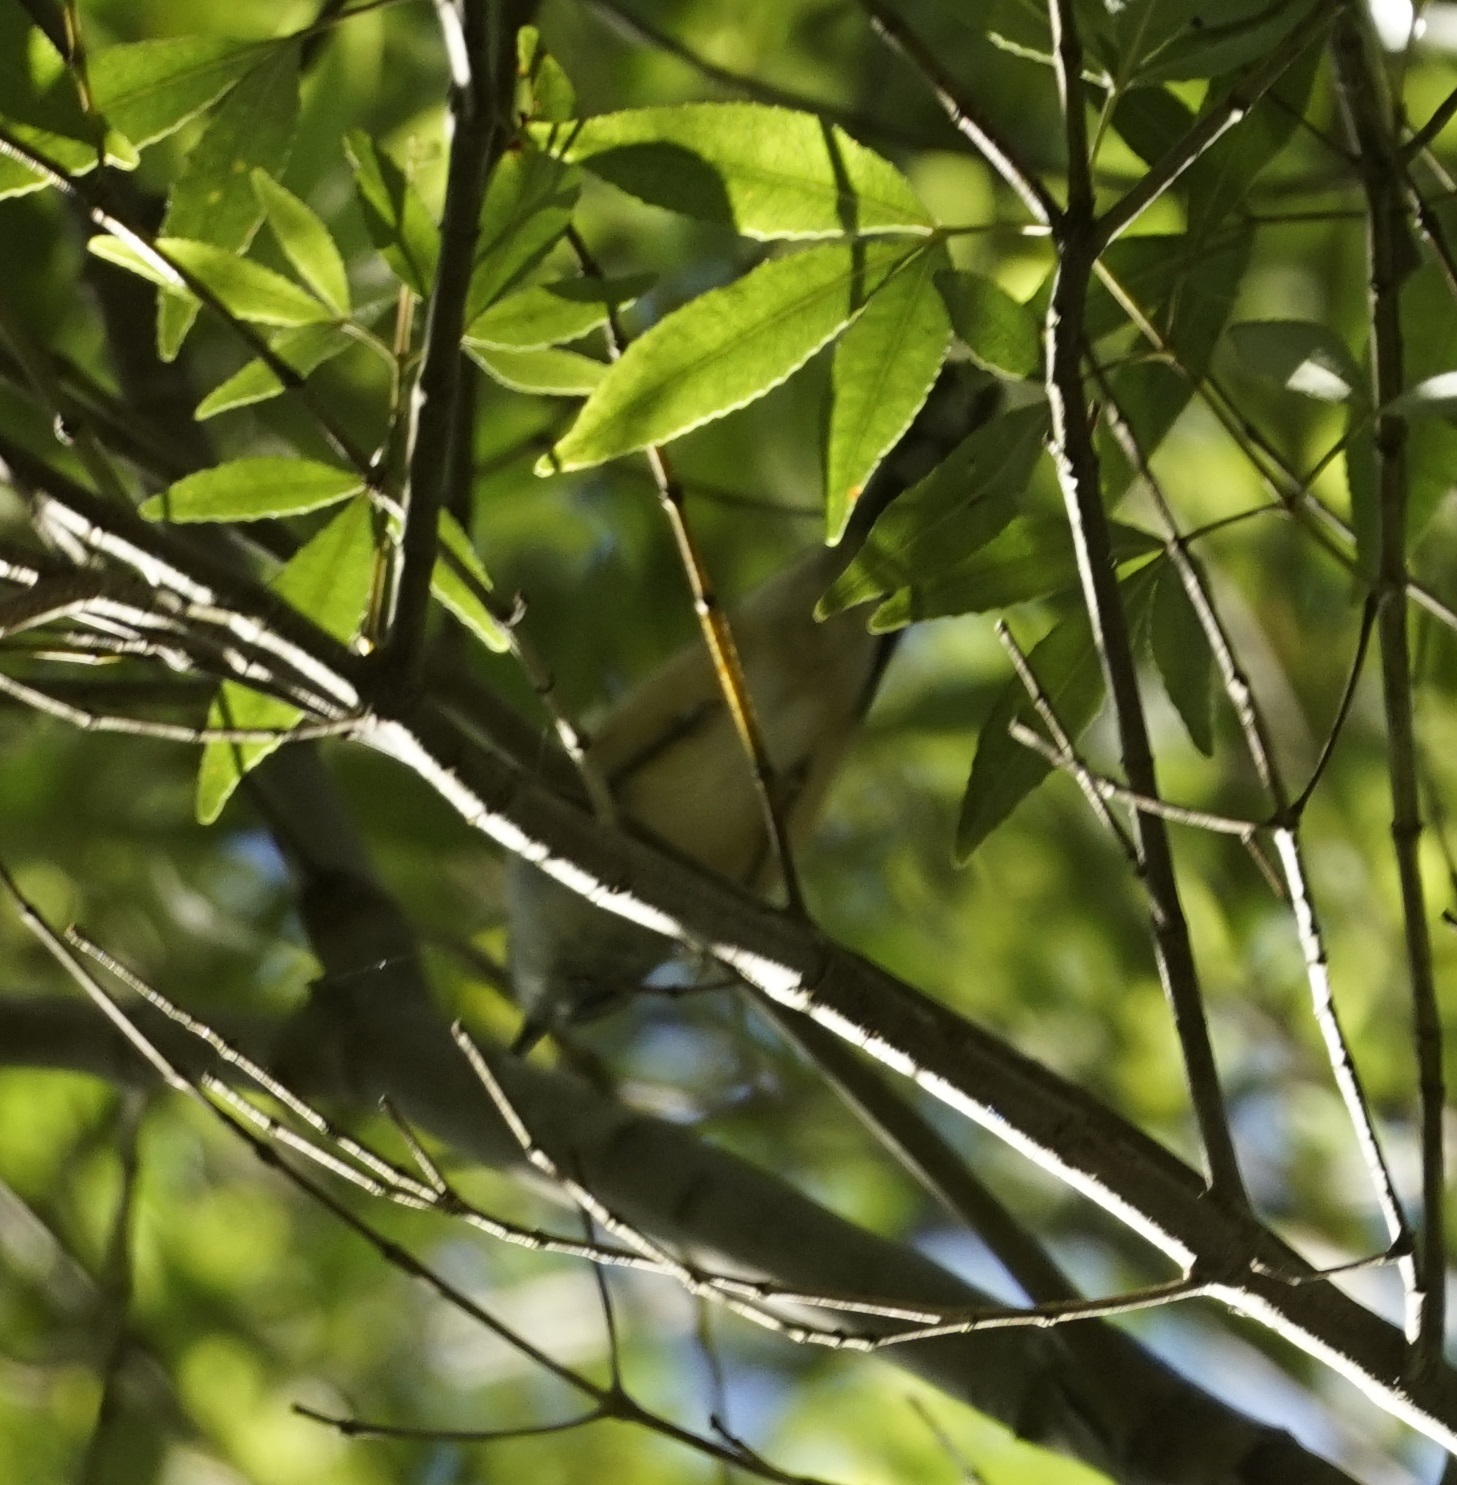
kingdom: Animalia
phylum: Chordata
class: Aves
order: Passeriformes
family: Pachycephalidae
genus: Pachycephala
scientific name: Pachycephala pectoralis
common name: Australian golden whistler
